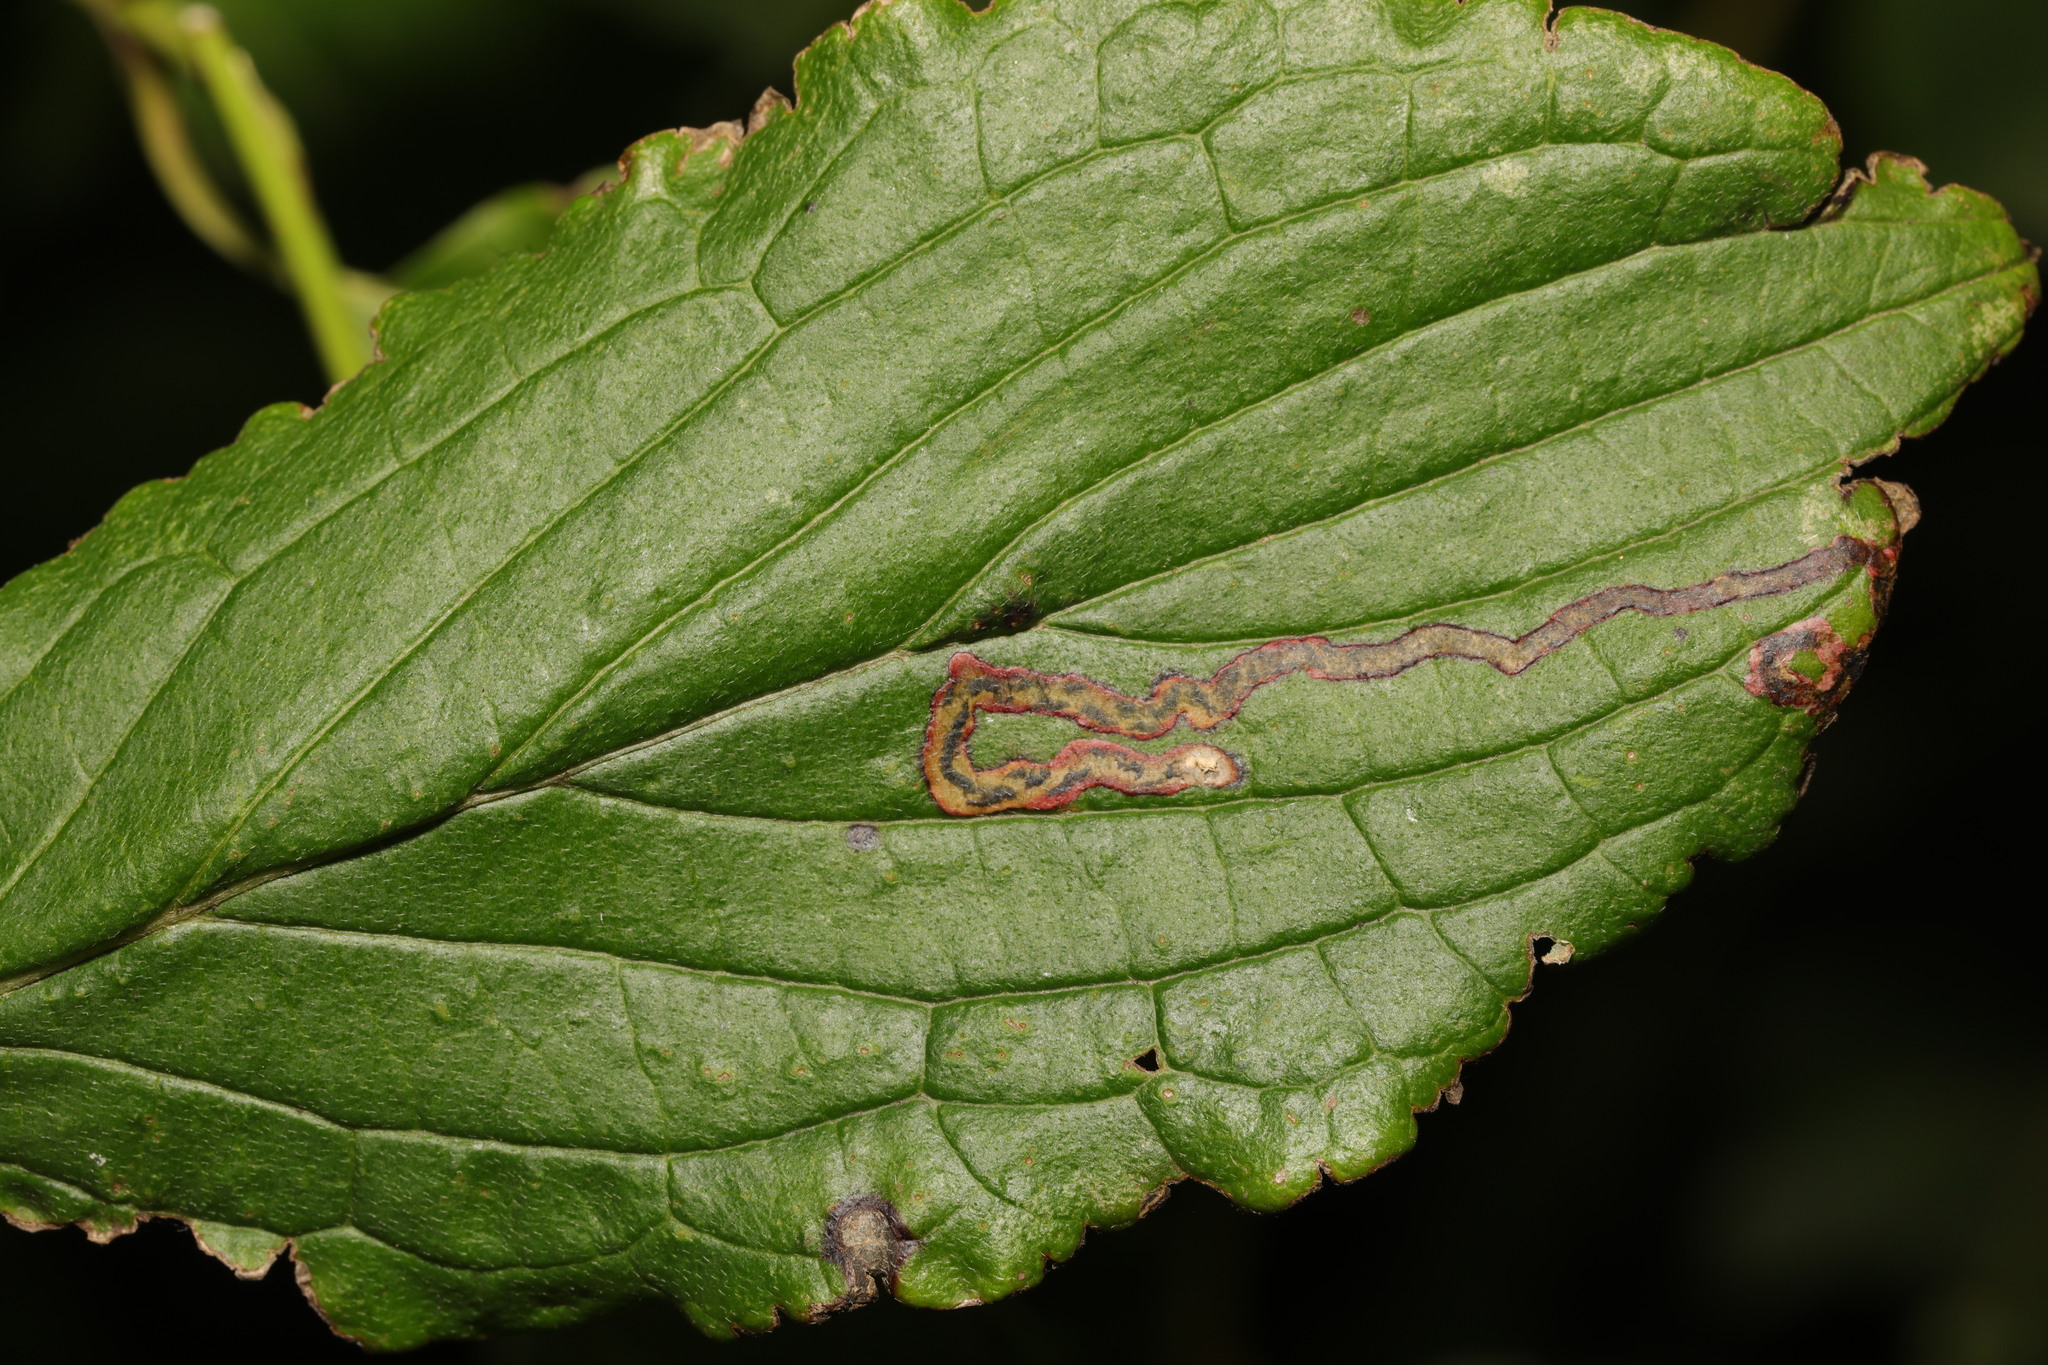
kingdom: Animalia
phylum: Arthropoda
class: Insecta
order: Diptera
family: Agromyzidae
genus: Phytomyza
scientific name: Phytomyza agromyzina
